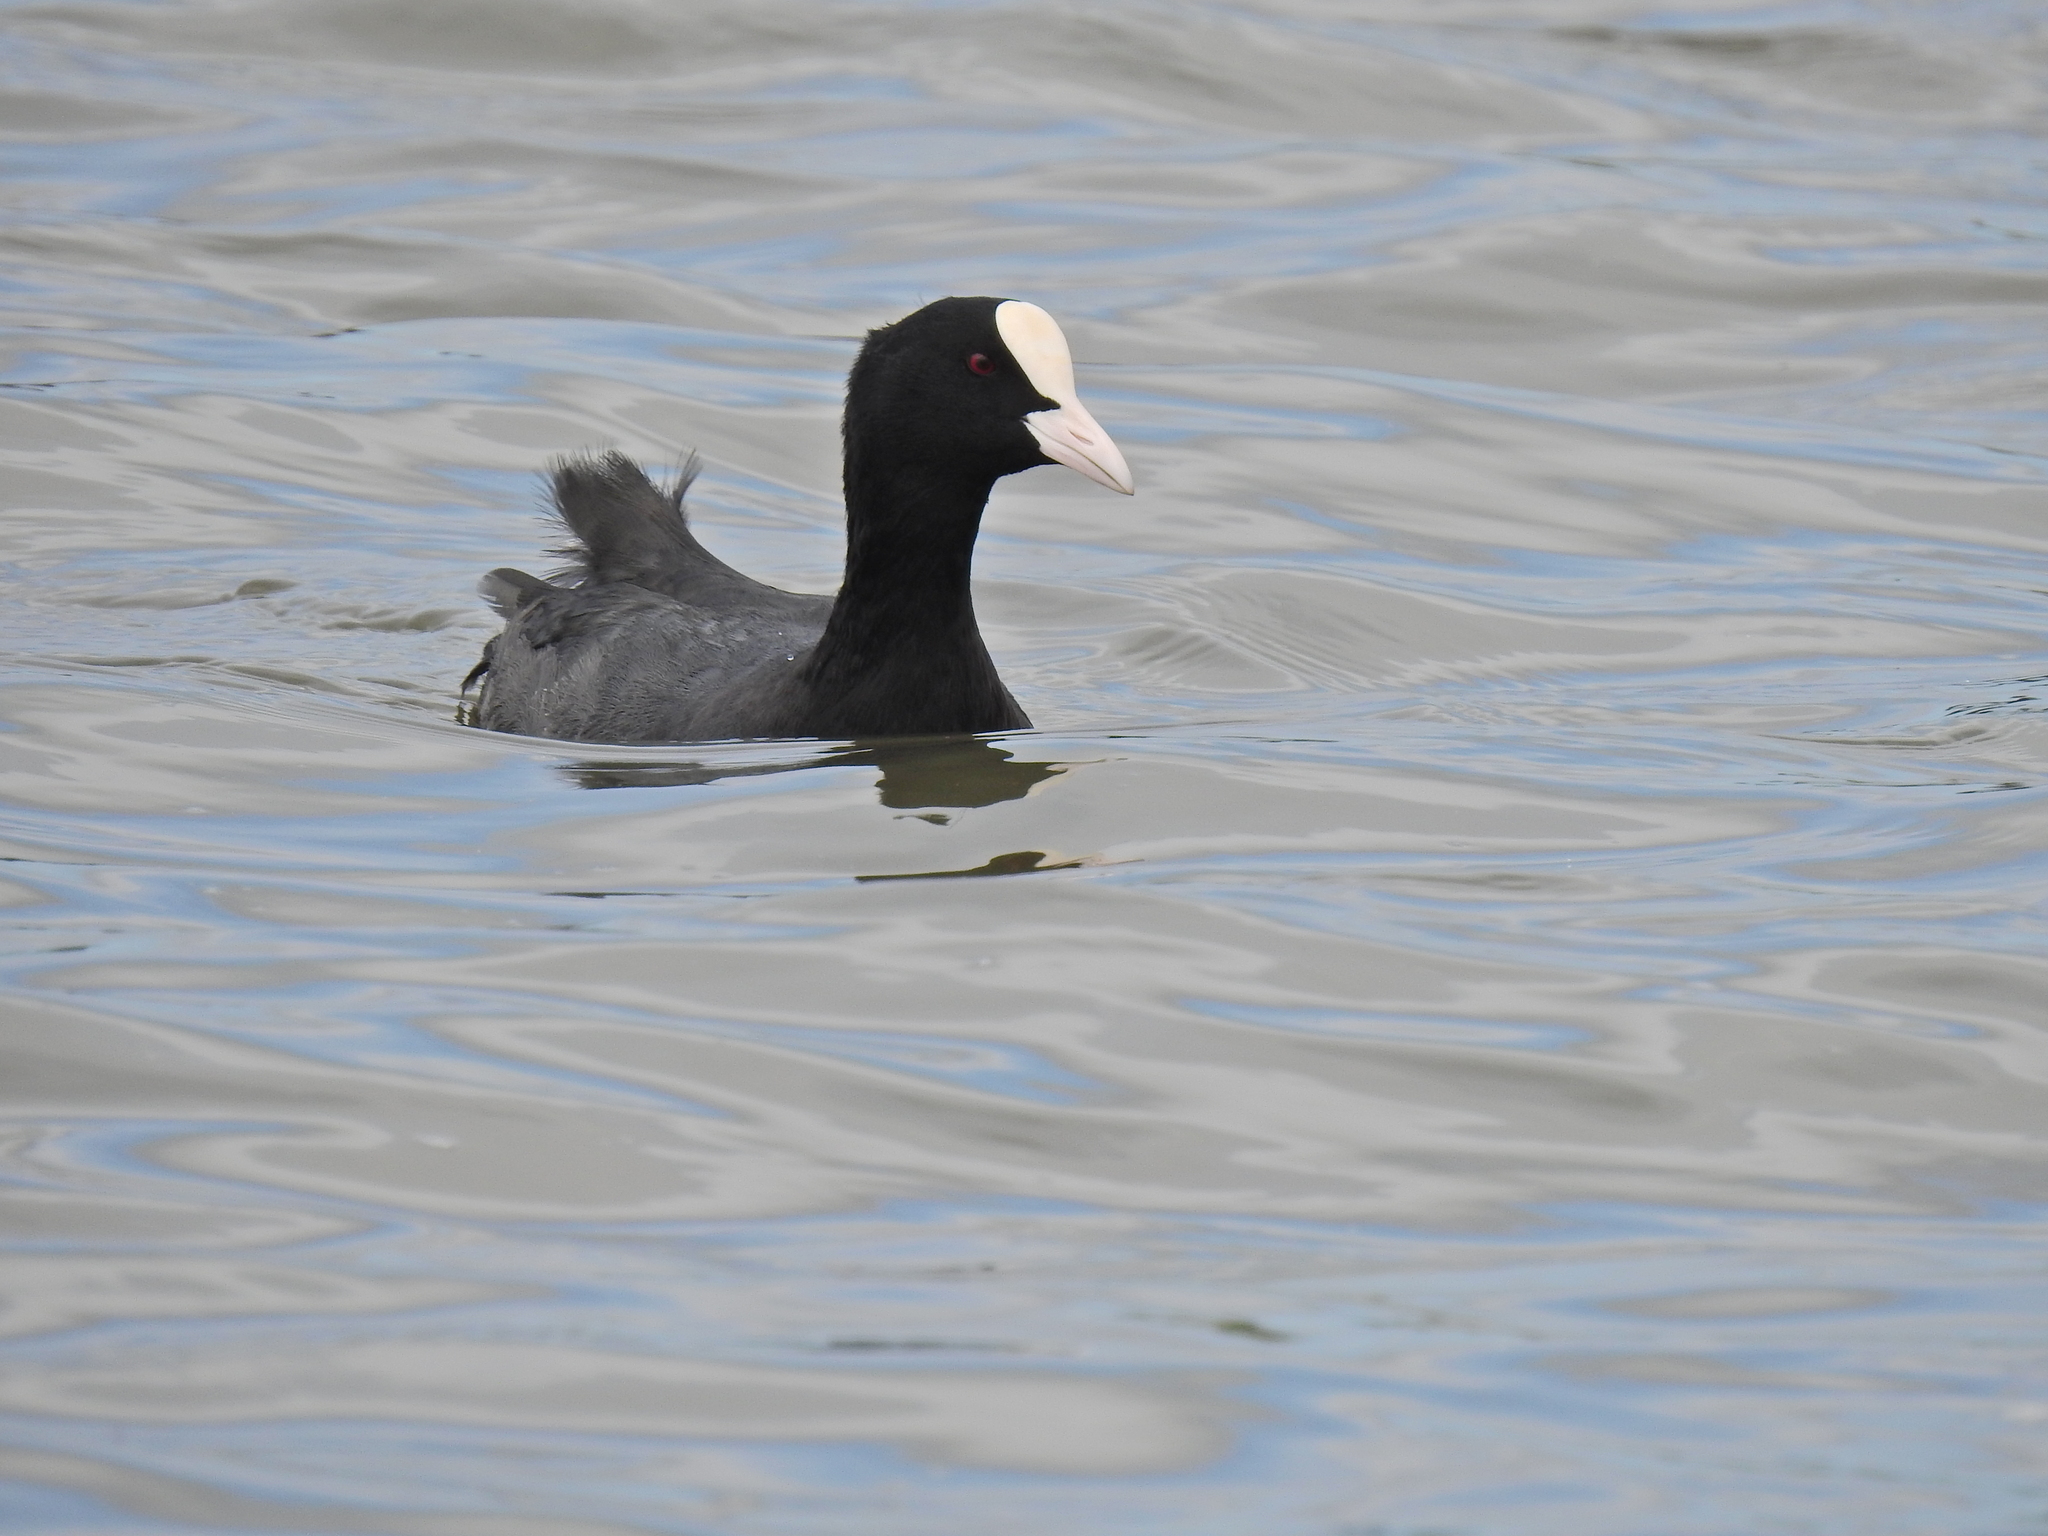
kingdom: Animalia
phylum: Chordata
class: Aves
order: Gruiformes
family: Rallidae
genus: Fulica
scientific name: Fulica atra
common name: Eurasian coot
